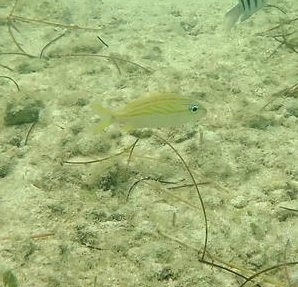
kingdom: Animalia
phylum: Chordata
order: Perciformes
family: Haemulidae
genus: Haemulon
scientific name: Haemulon flavolineatum
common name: French grunt
